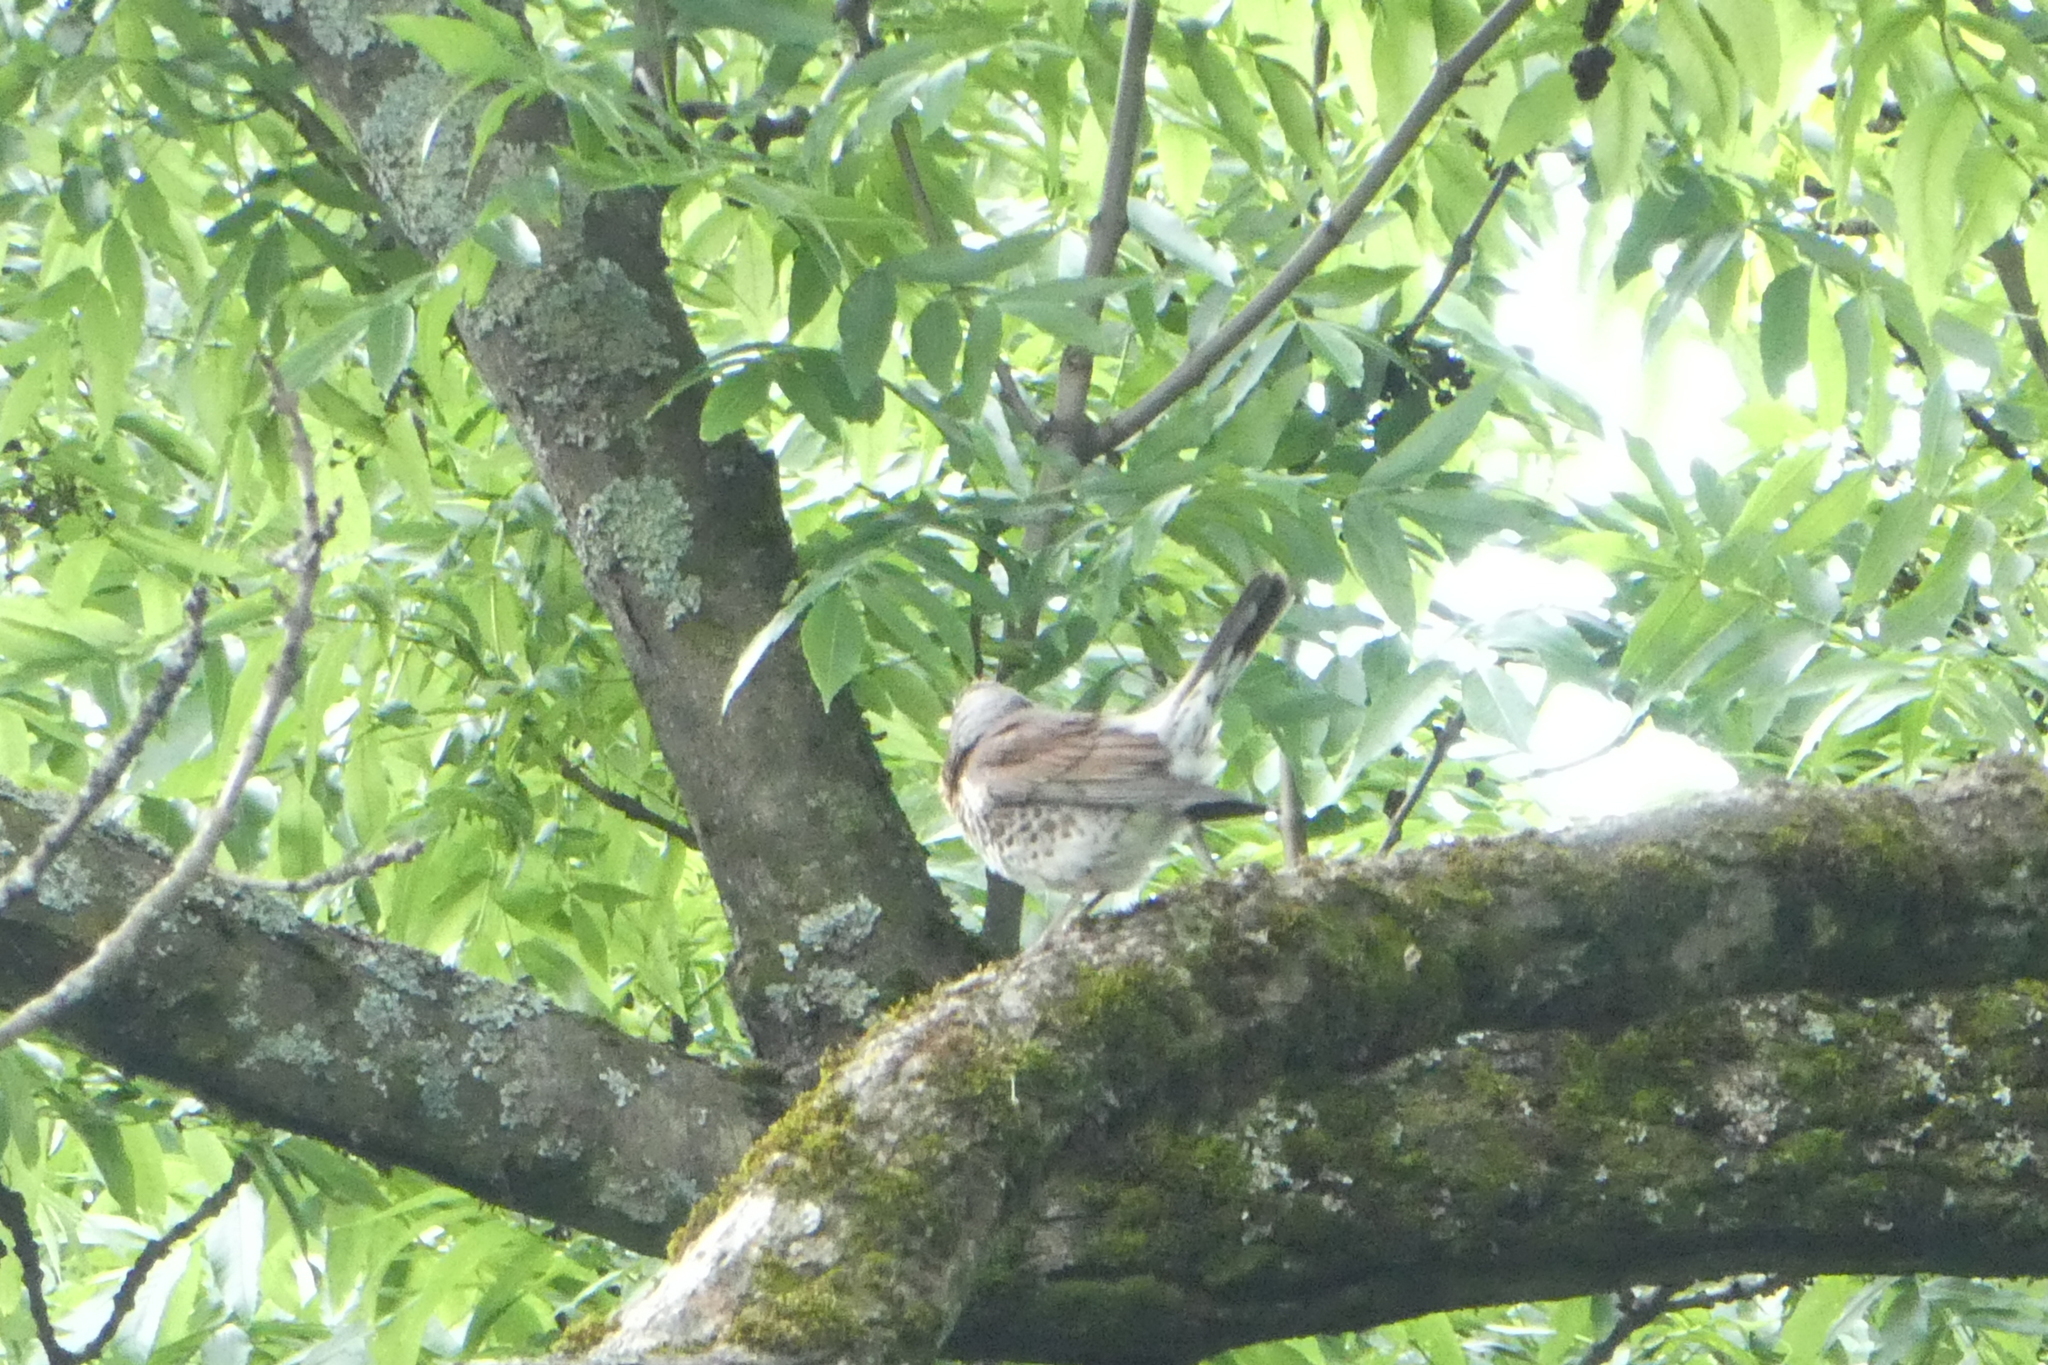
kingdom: Animalia
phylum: Chordata
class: Aves
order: Passeriformes
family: Turdidae
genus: Turdus
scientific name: Turdus pilaris
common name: Fieldfare
